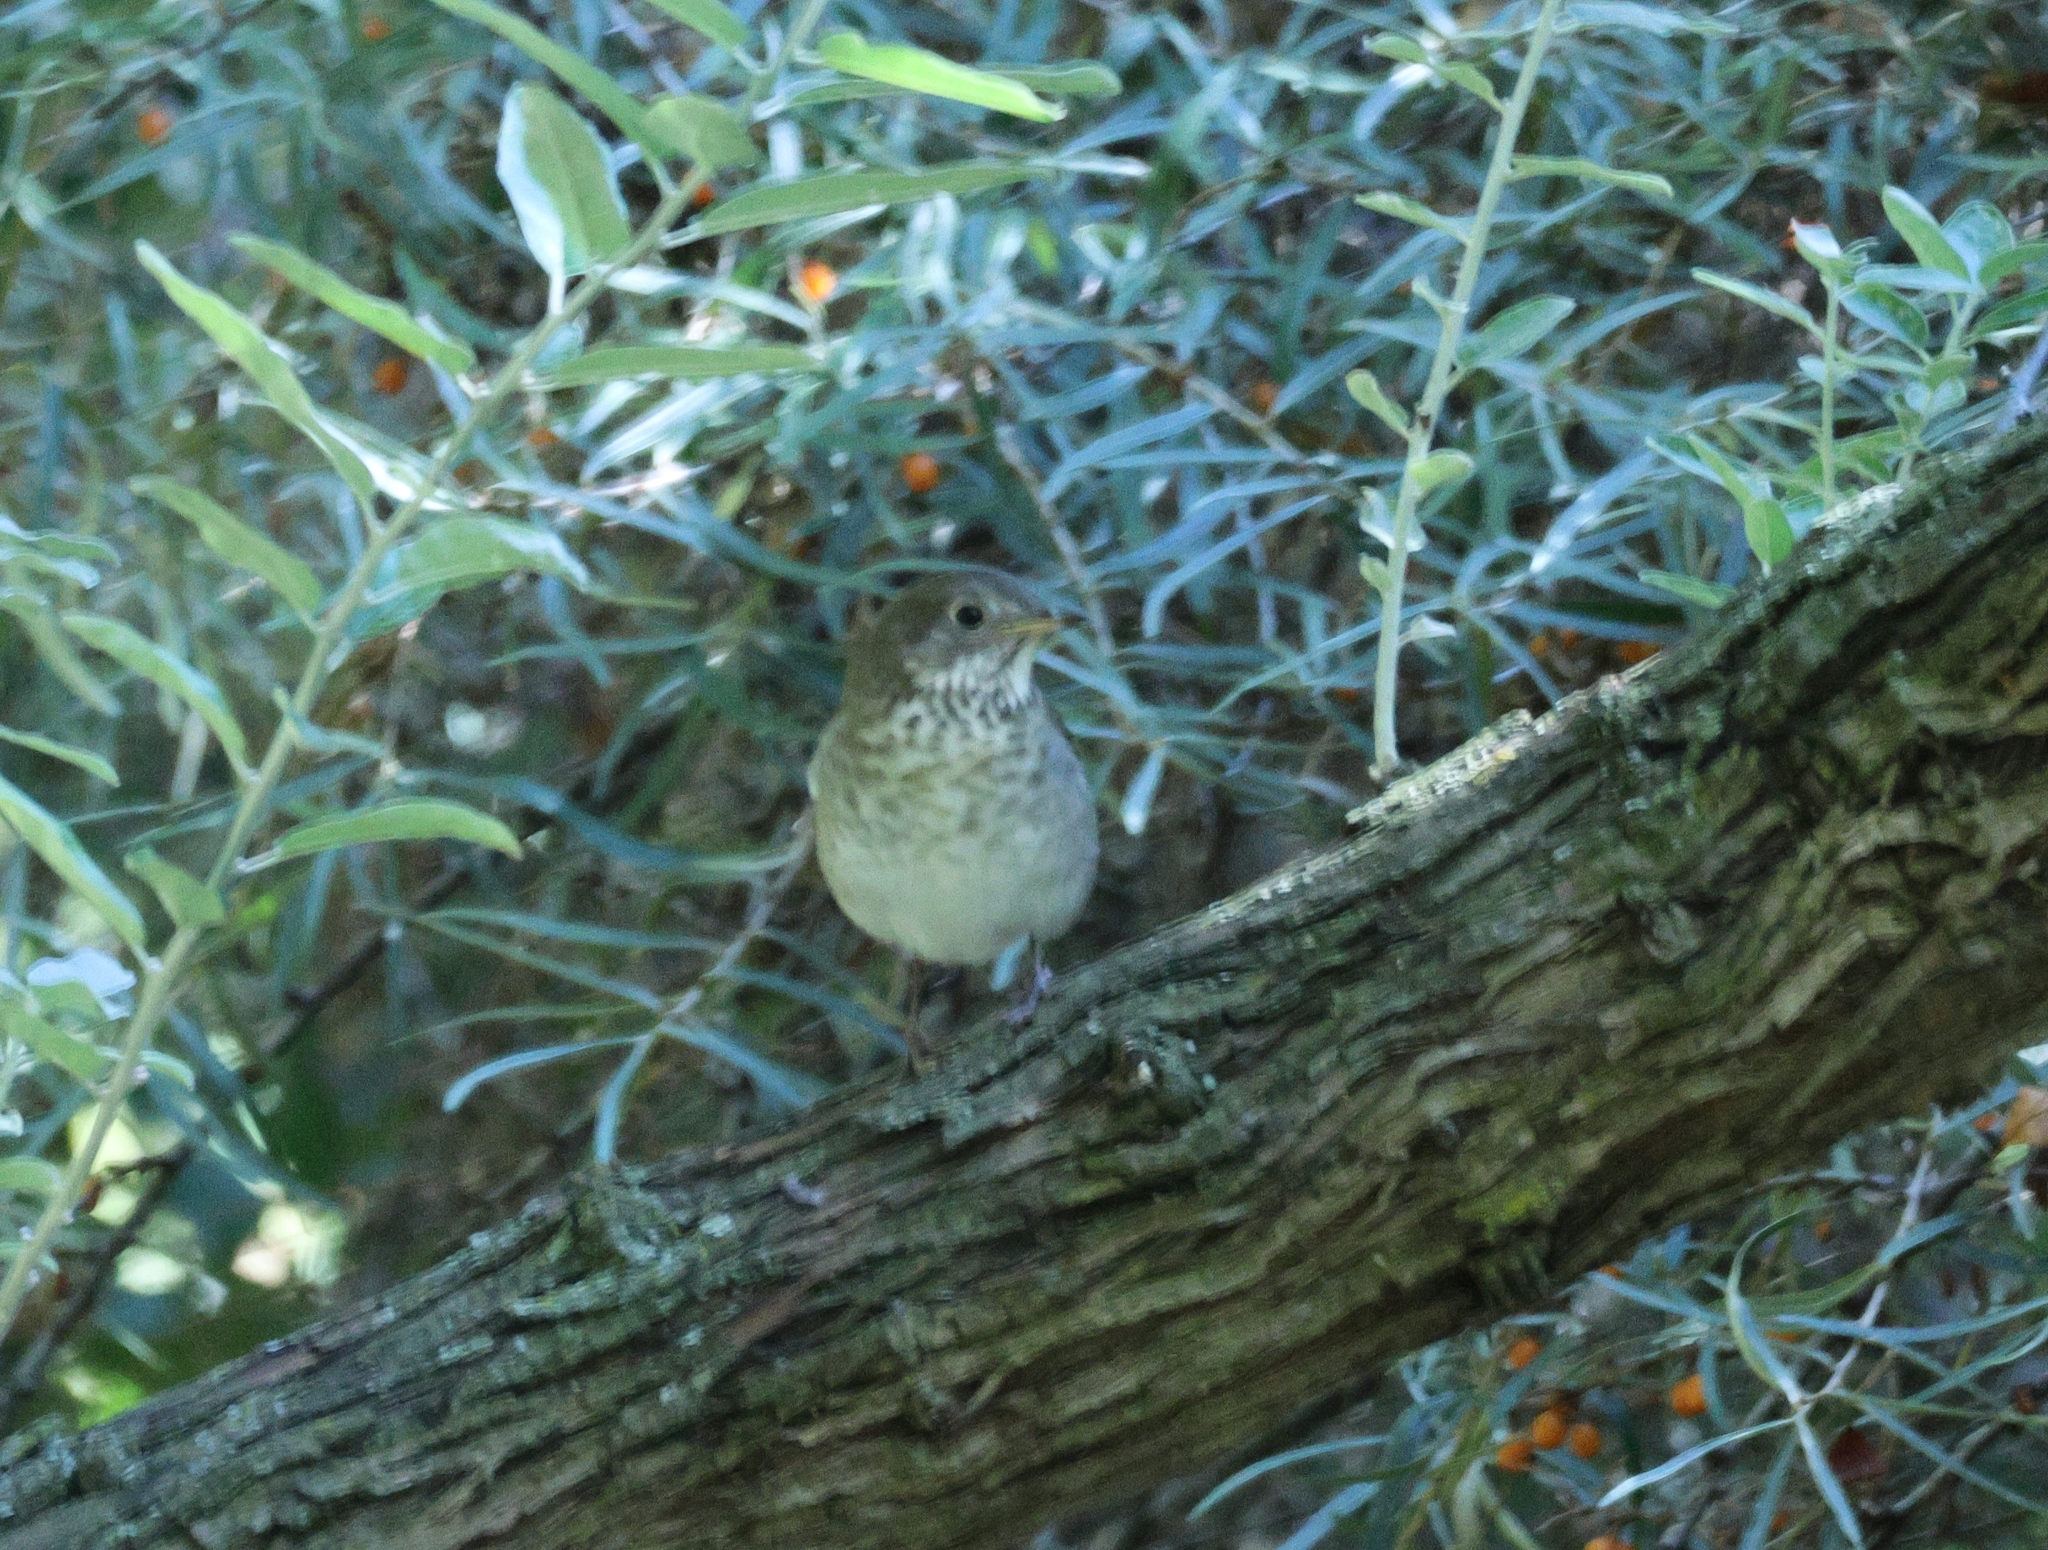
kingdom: Animalia
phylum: Chordata
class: Aves
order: Passeriformes
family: Turdidae
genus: Catharus
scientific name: Catharus minimus
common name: Grey-cheeked thrush
